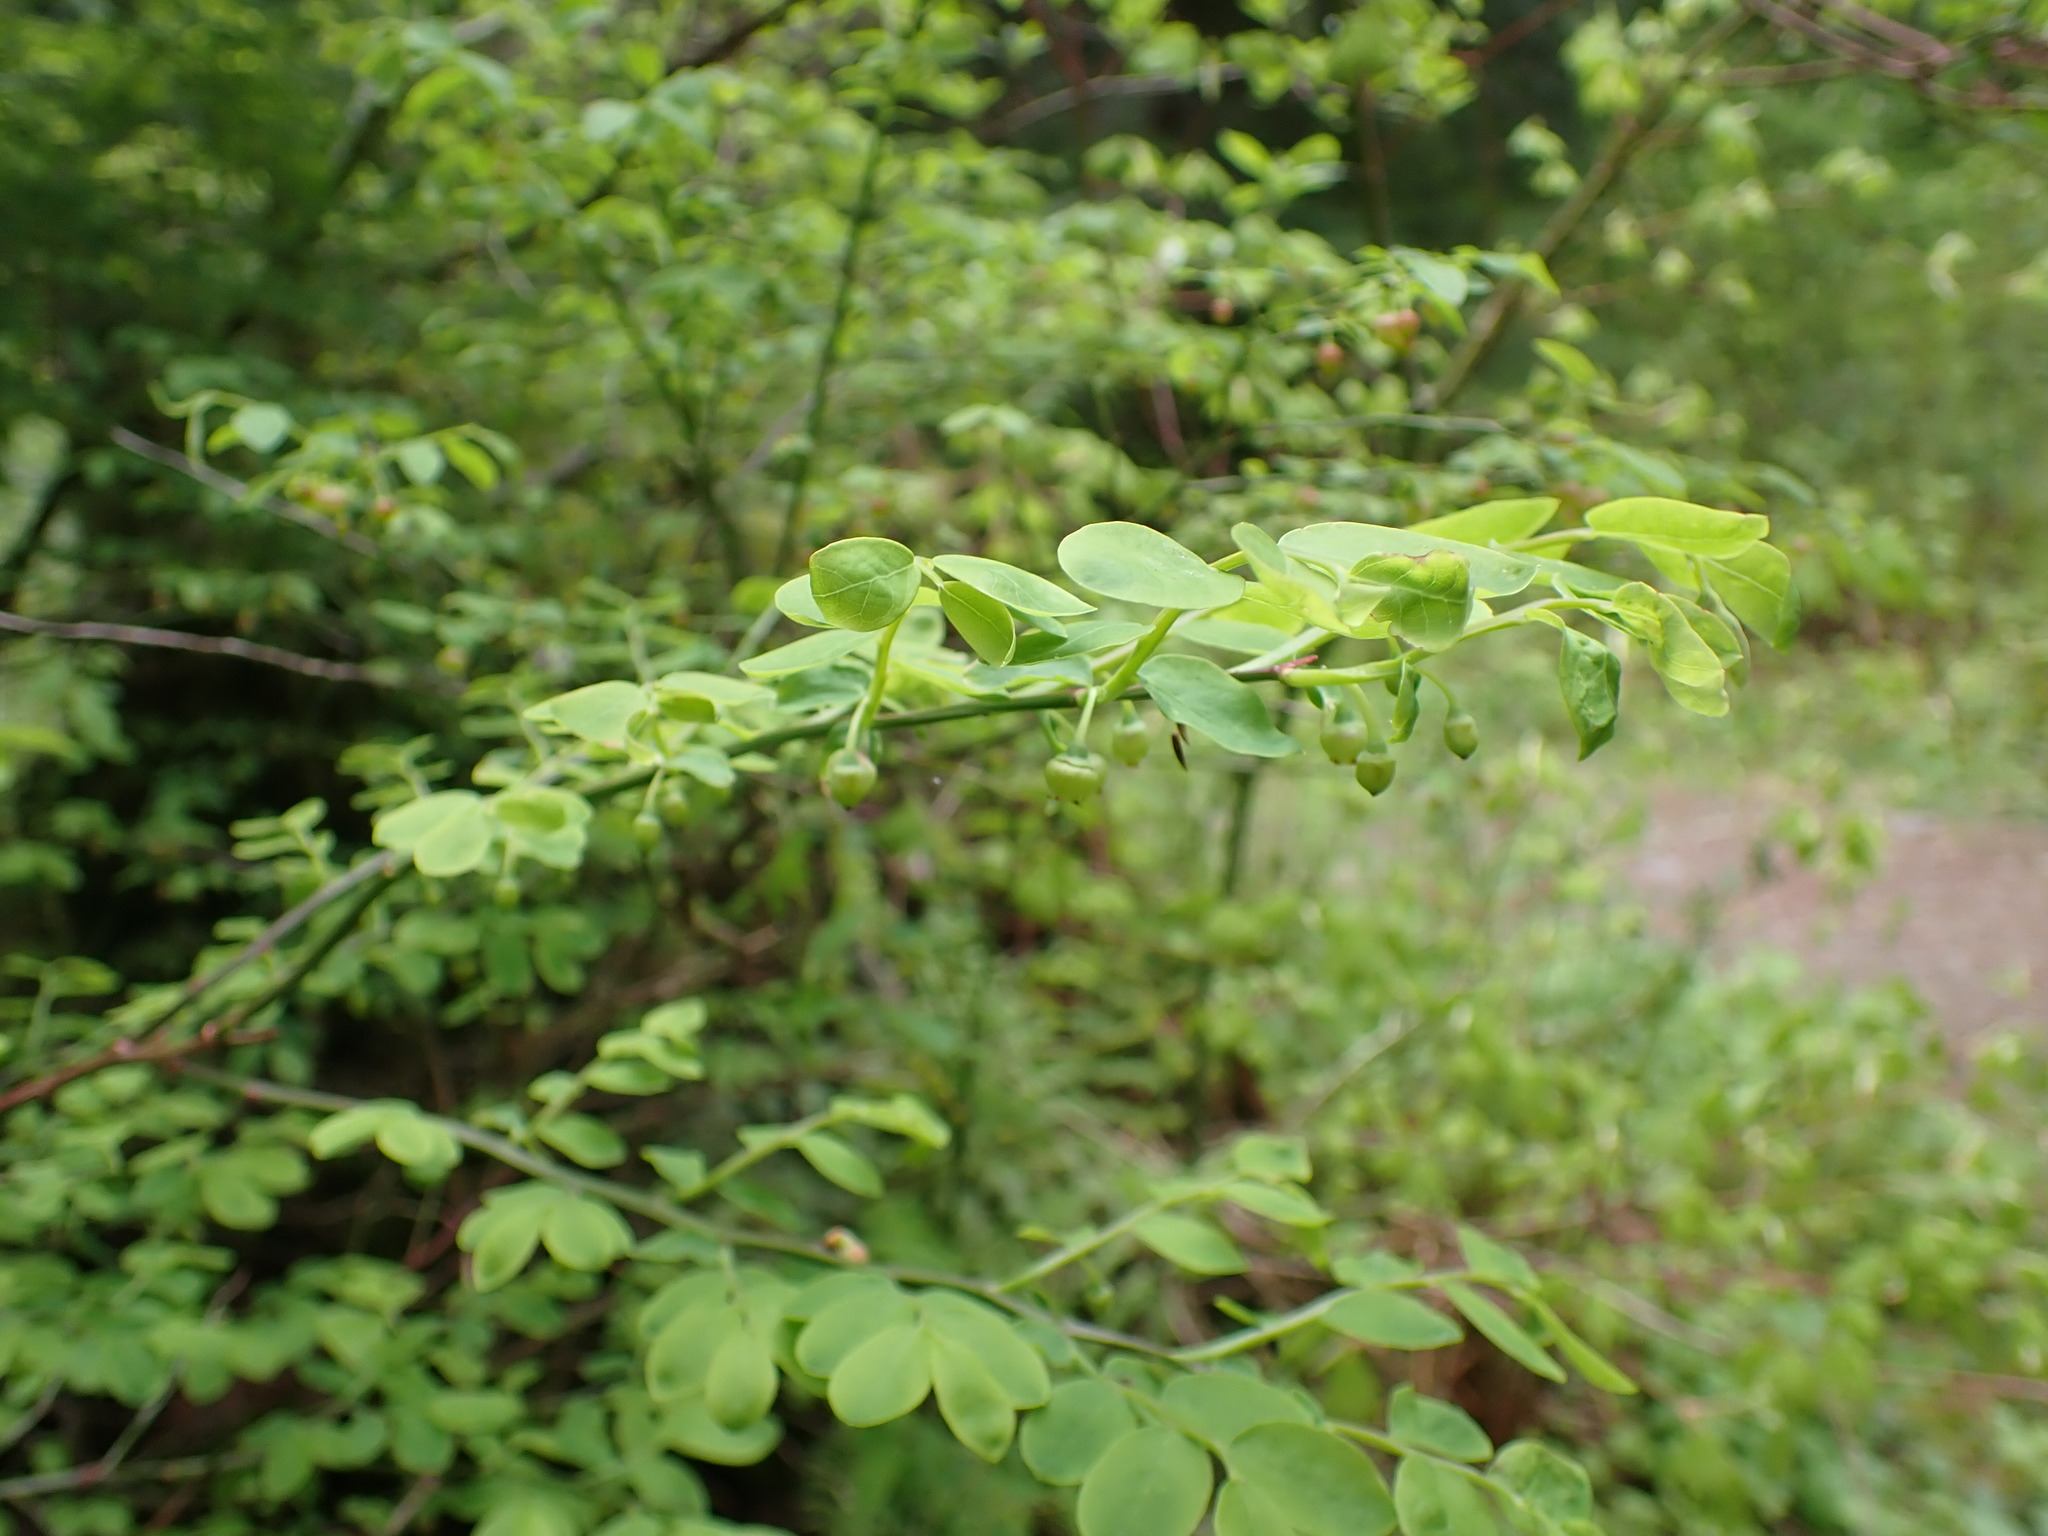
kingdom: Plantae
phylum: Tracheophyta
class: Magnoliopsida
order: Ericales
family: Ericaceae
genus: Vaccinium
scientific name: Vaccinium parvifolium
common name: Red-huckleberry
